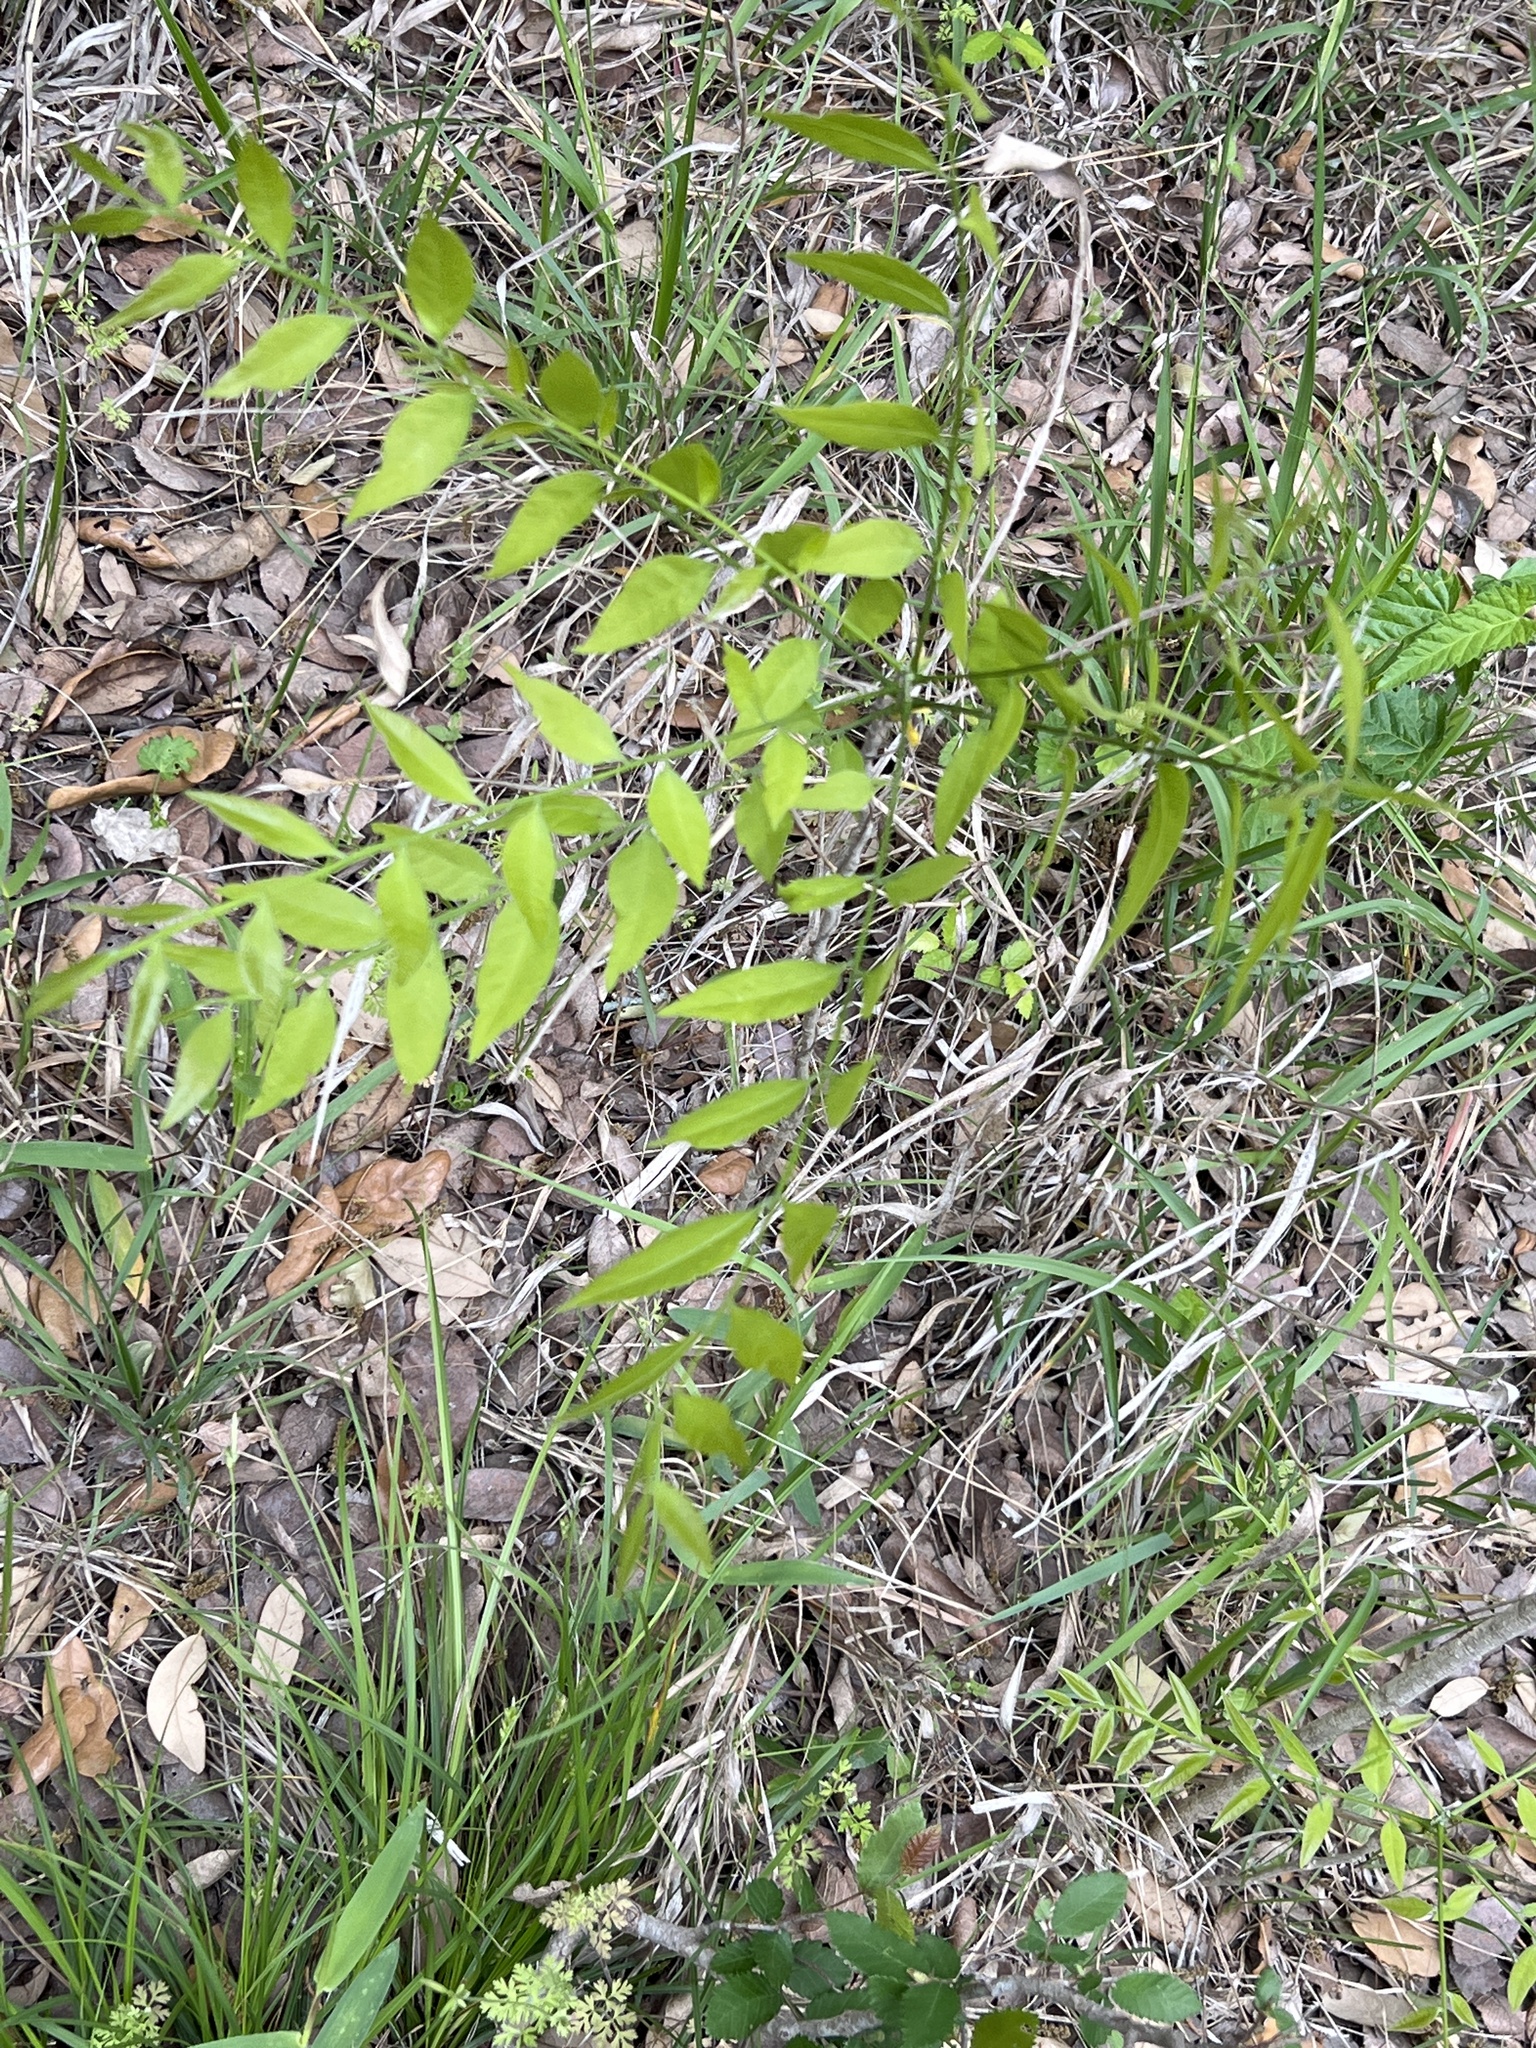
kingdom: Plantae
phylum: Tracheophyta
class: Magnoliopsida
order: Sapindales
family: Sapindaceae
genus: Sapindus
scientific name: Sapindus drummondii
